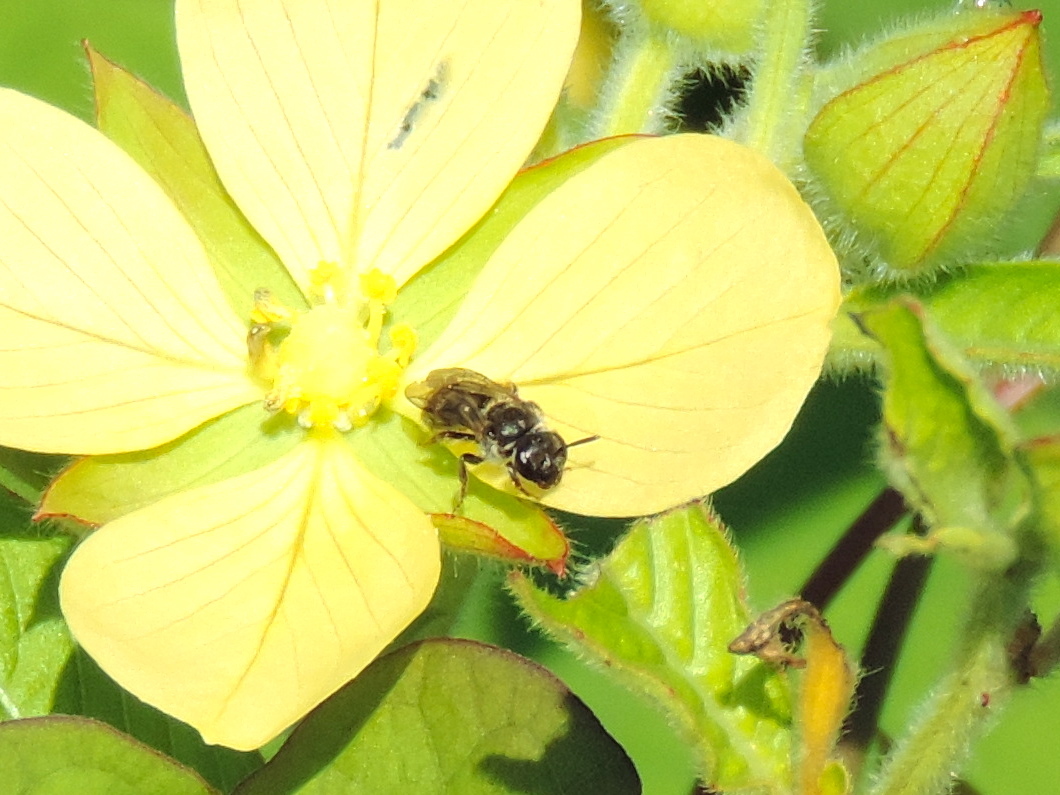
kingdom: Animalia
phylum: Arthropoda
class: Insecta
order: Hymenoptera
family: Halictidae
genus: Dialictus
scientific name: Dialictus
